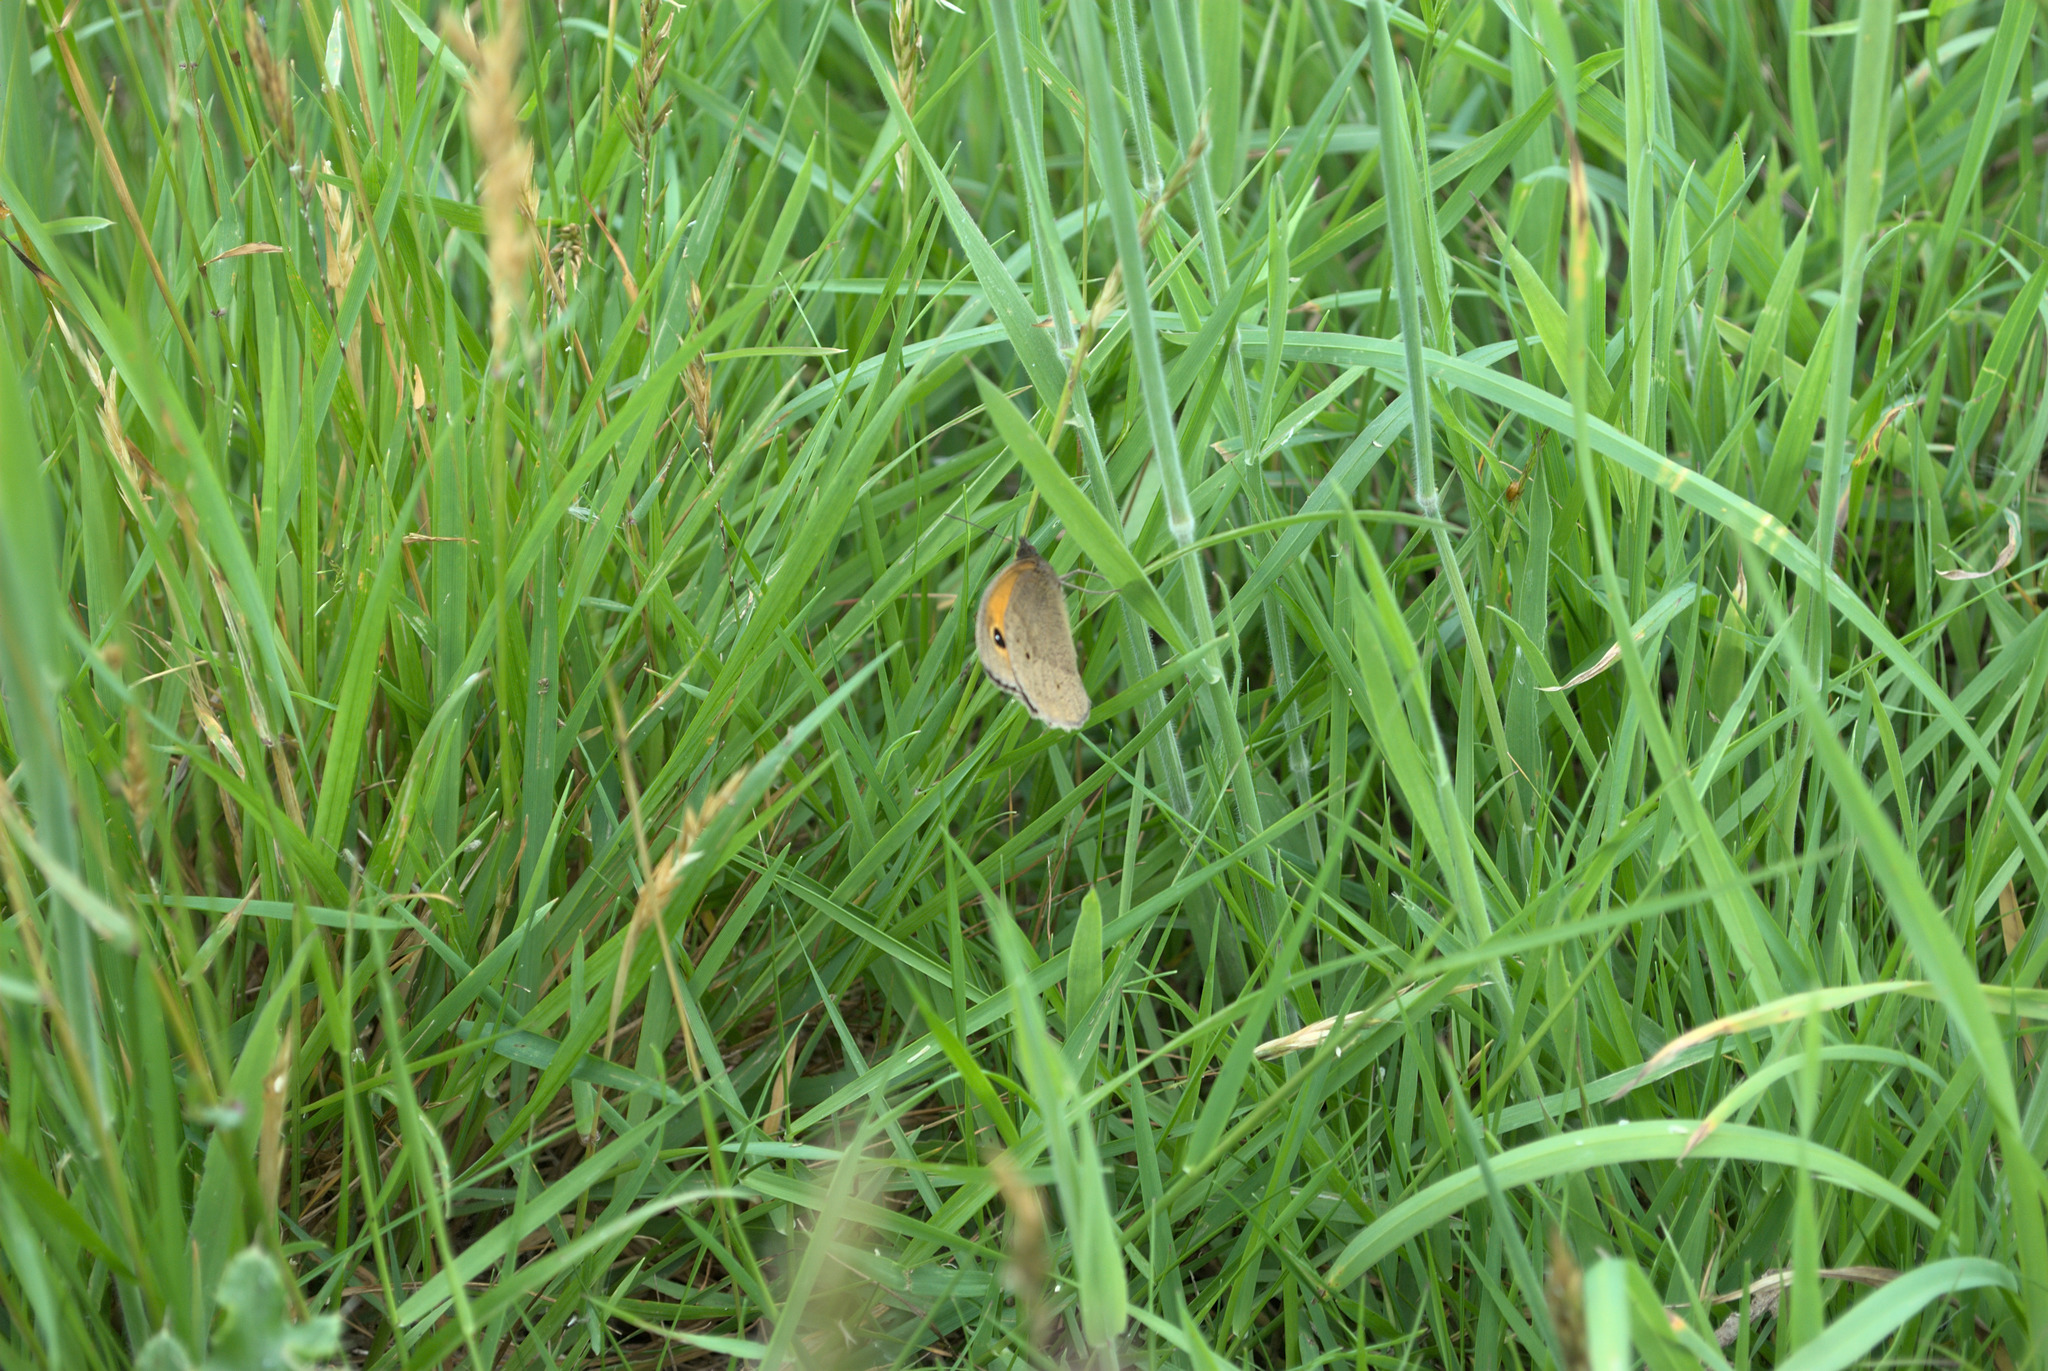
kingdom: Animalia
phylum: Arthropoda
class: Insecta
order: Lepidoptera
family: Nymphalidae
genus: Maniola
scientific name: Maniola jurtina
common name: Meadow brown
